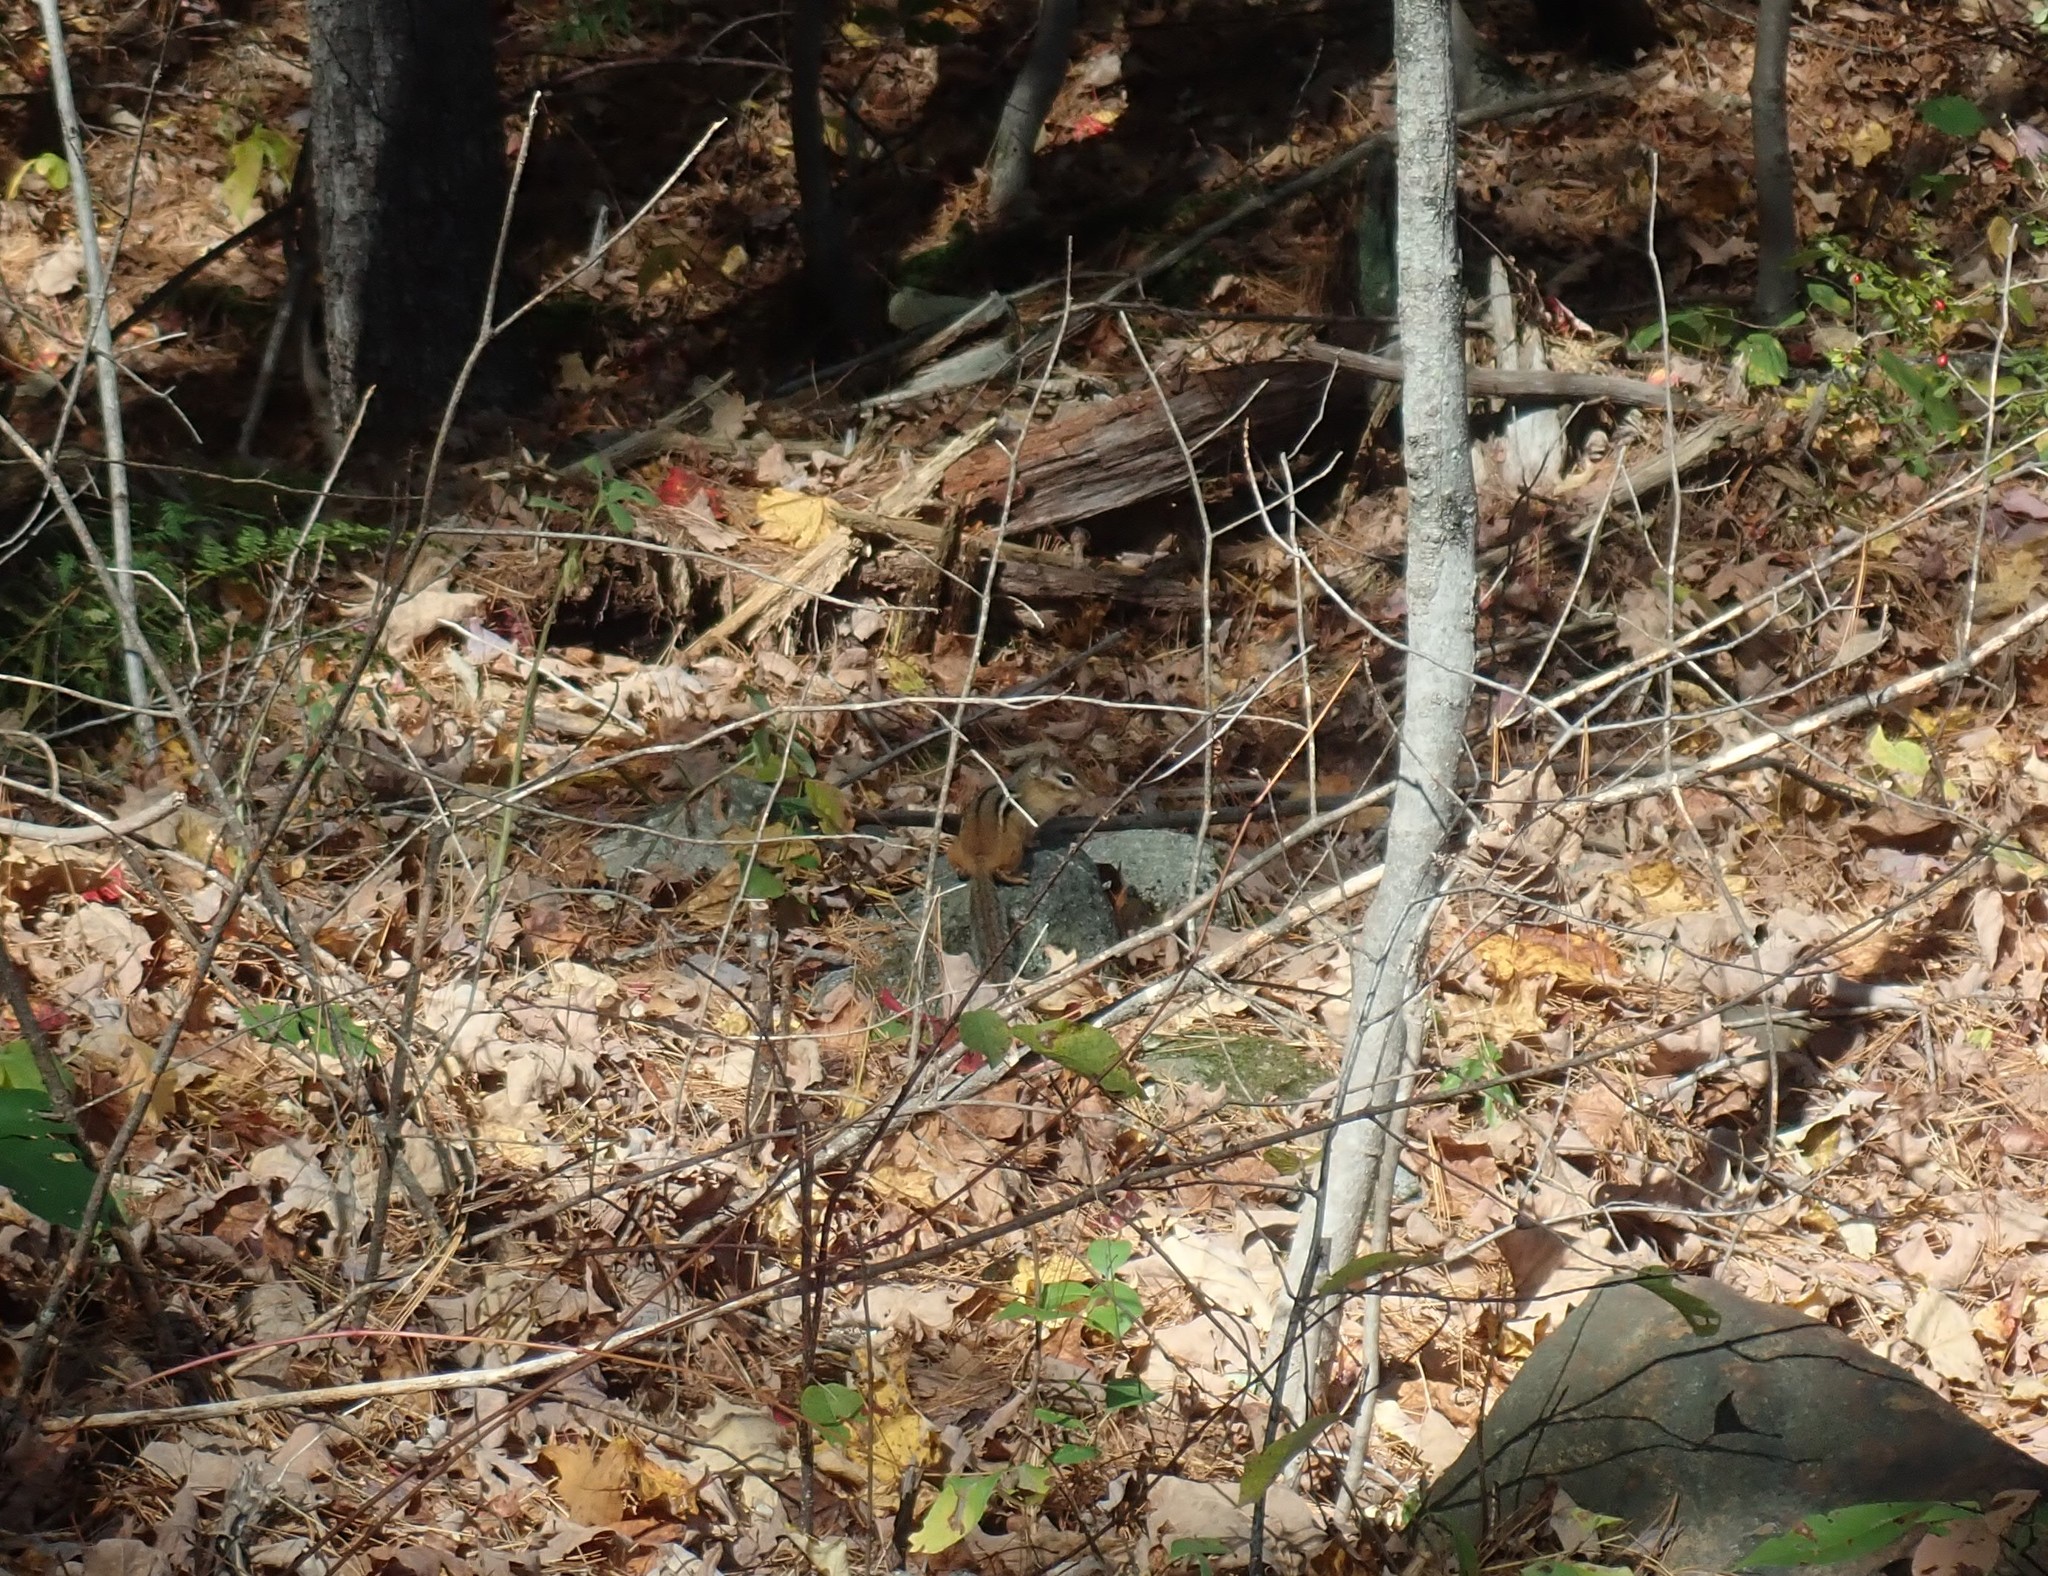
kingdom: Animalia
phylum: Chordata
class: Mammalia
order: Rodentia
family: Sciuridae
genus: Tamias
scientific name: Tamias striatus
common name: Eastern chipmunk
